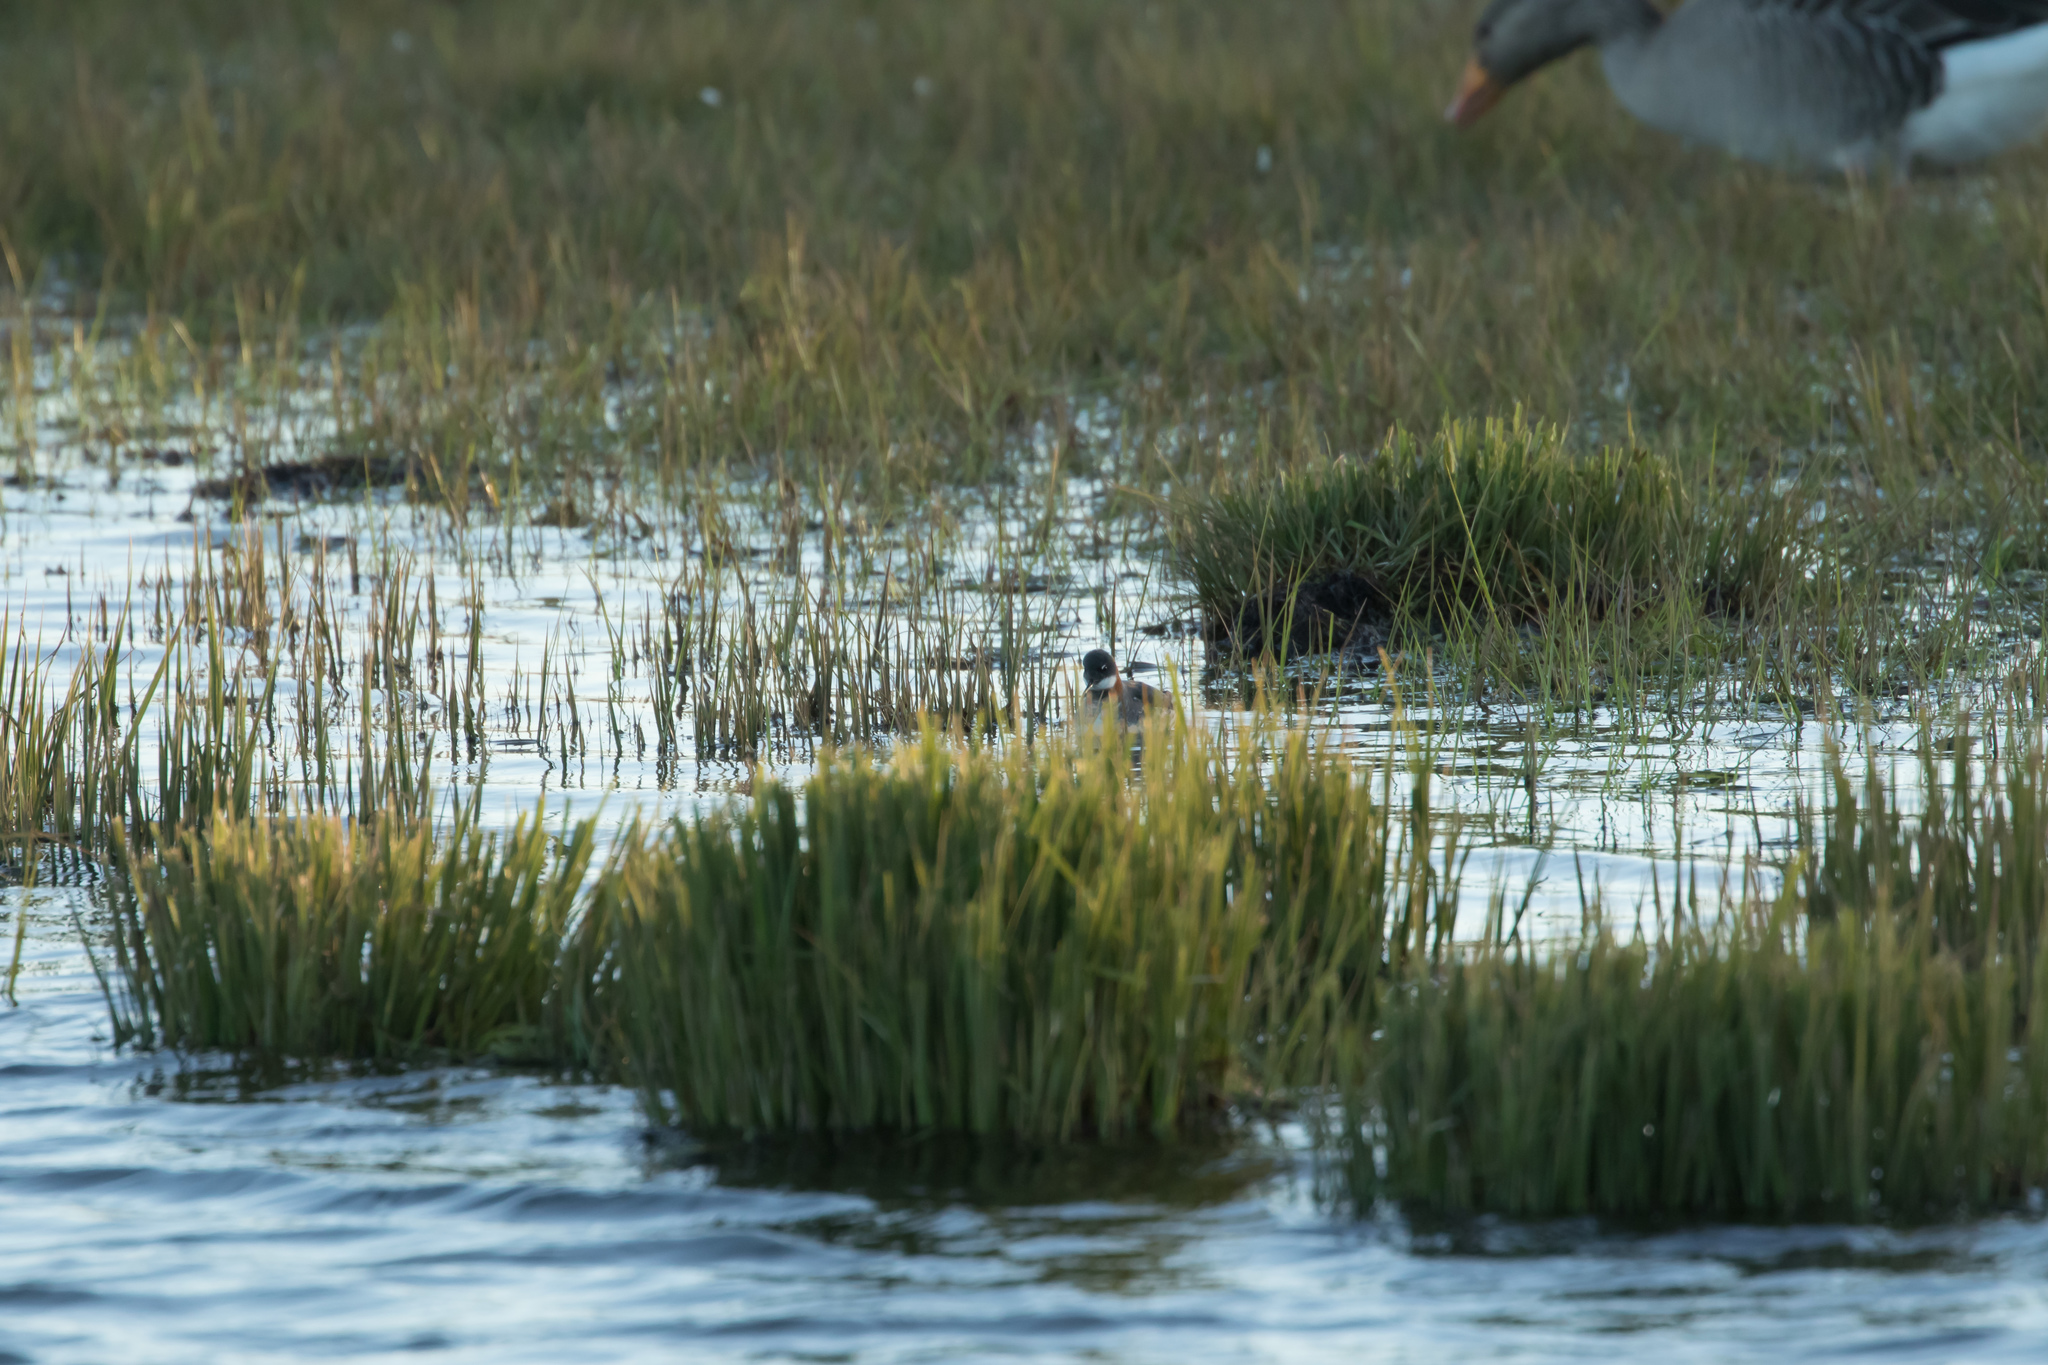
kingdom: Animalia
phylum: Chordata
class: Aves
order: Charadriiformes
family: Scolopacidae
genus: Phalaropus
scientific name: Phalaropus lobatus
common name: Red-necked phalarope
